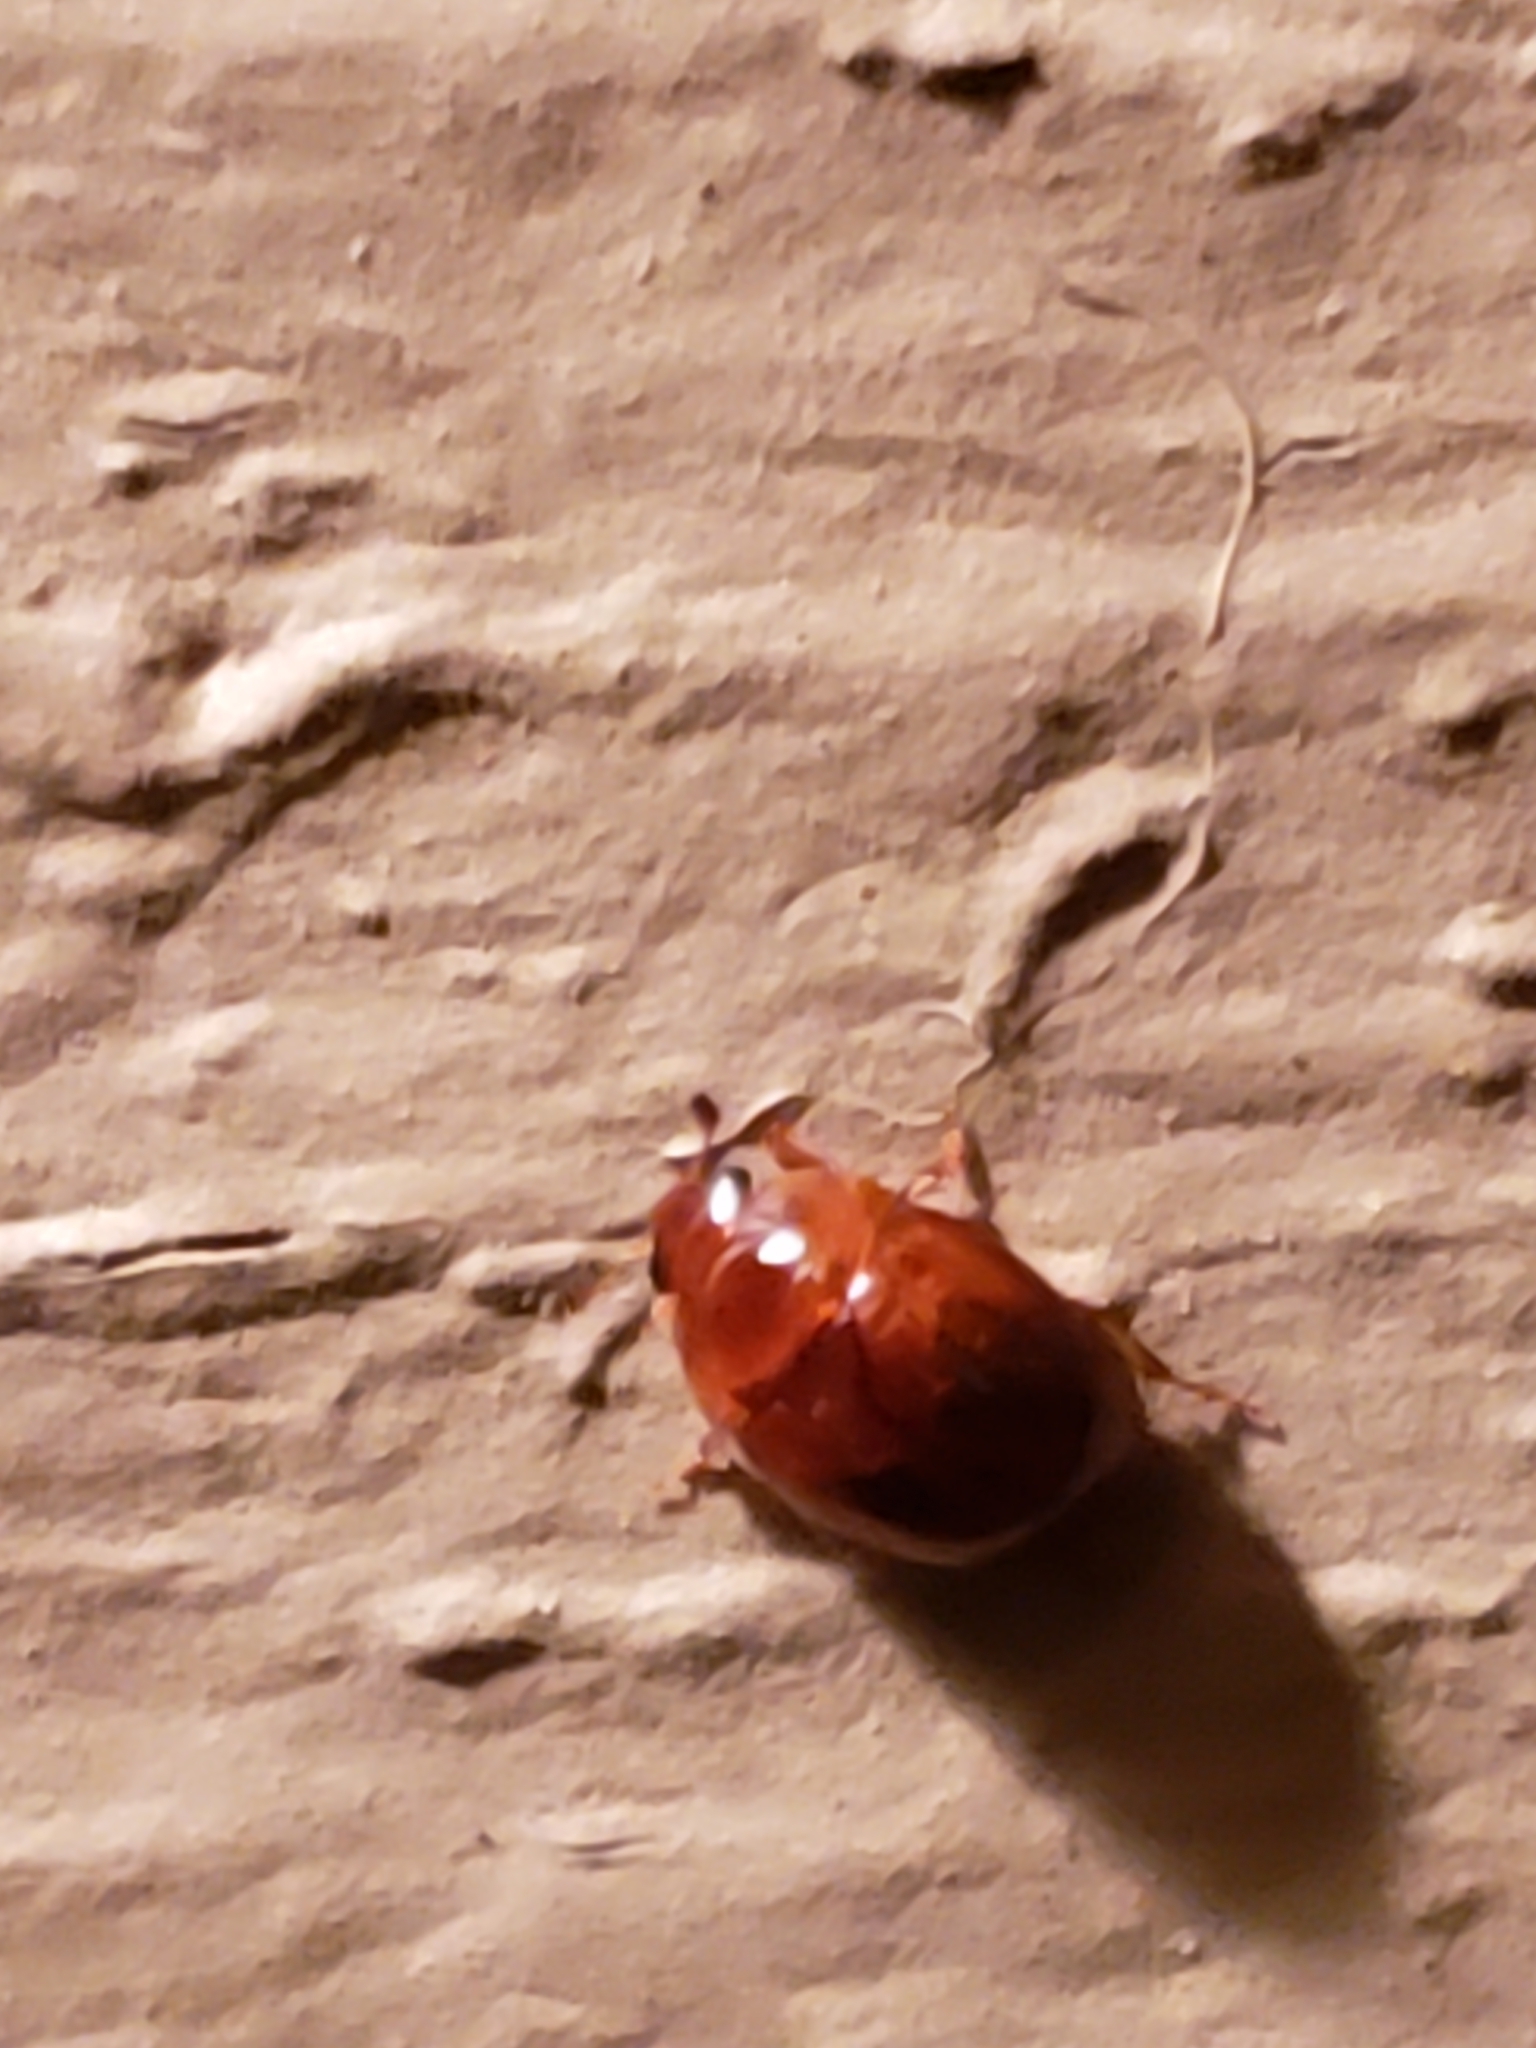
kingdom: Animalia
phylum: Arthropoda
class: Insecta
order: Coleoptera
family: Nitidulidae
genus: Pallodes
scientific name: Pallodes pallidus
